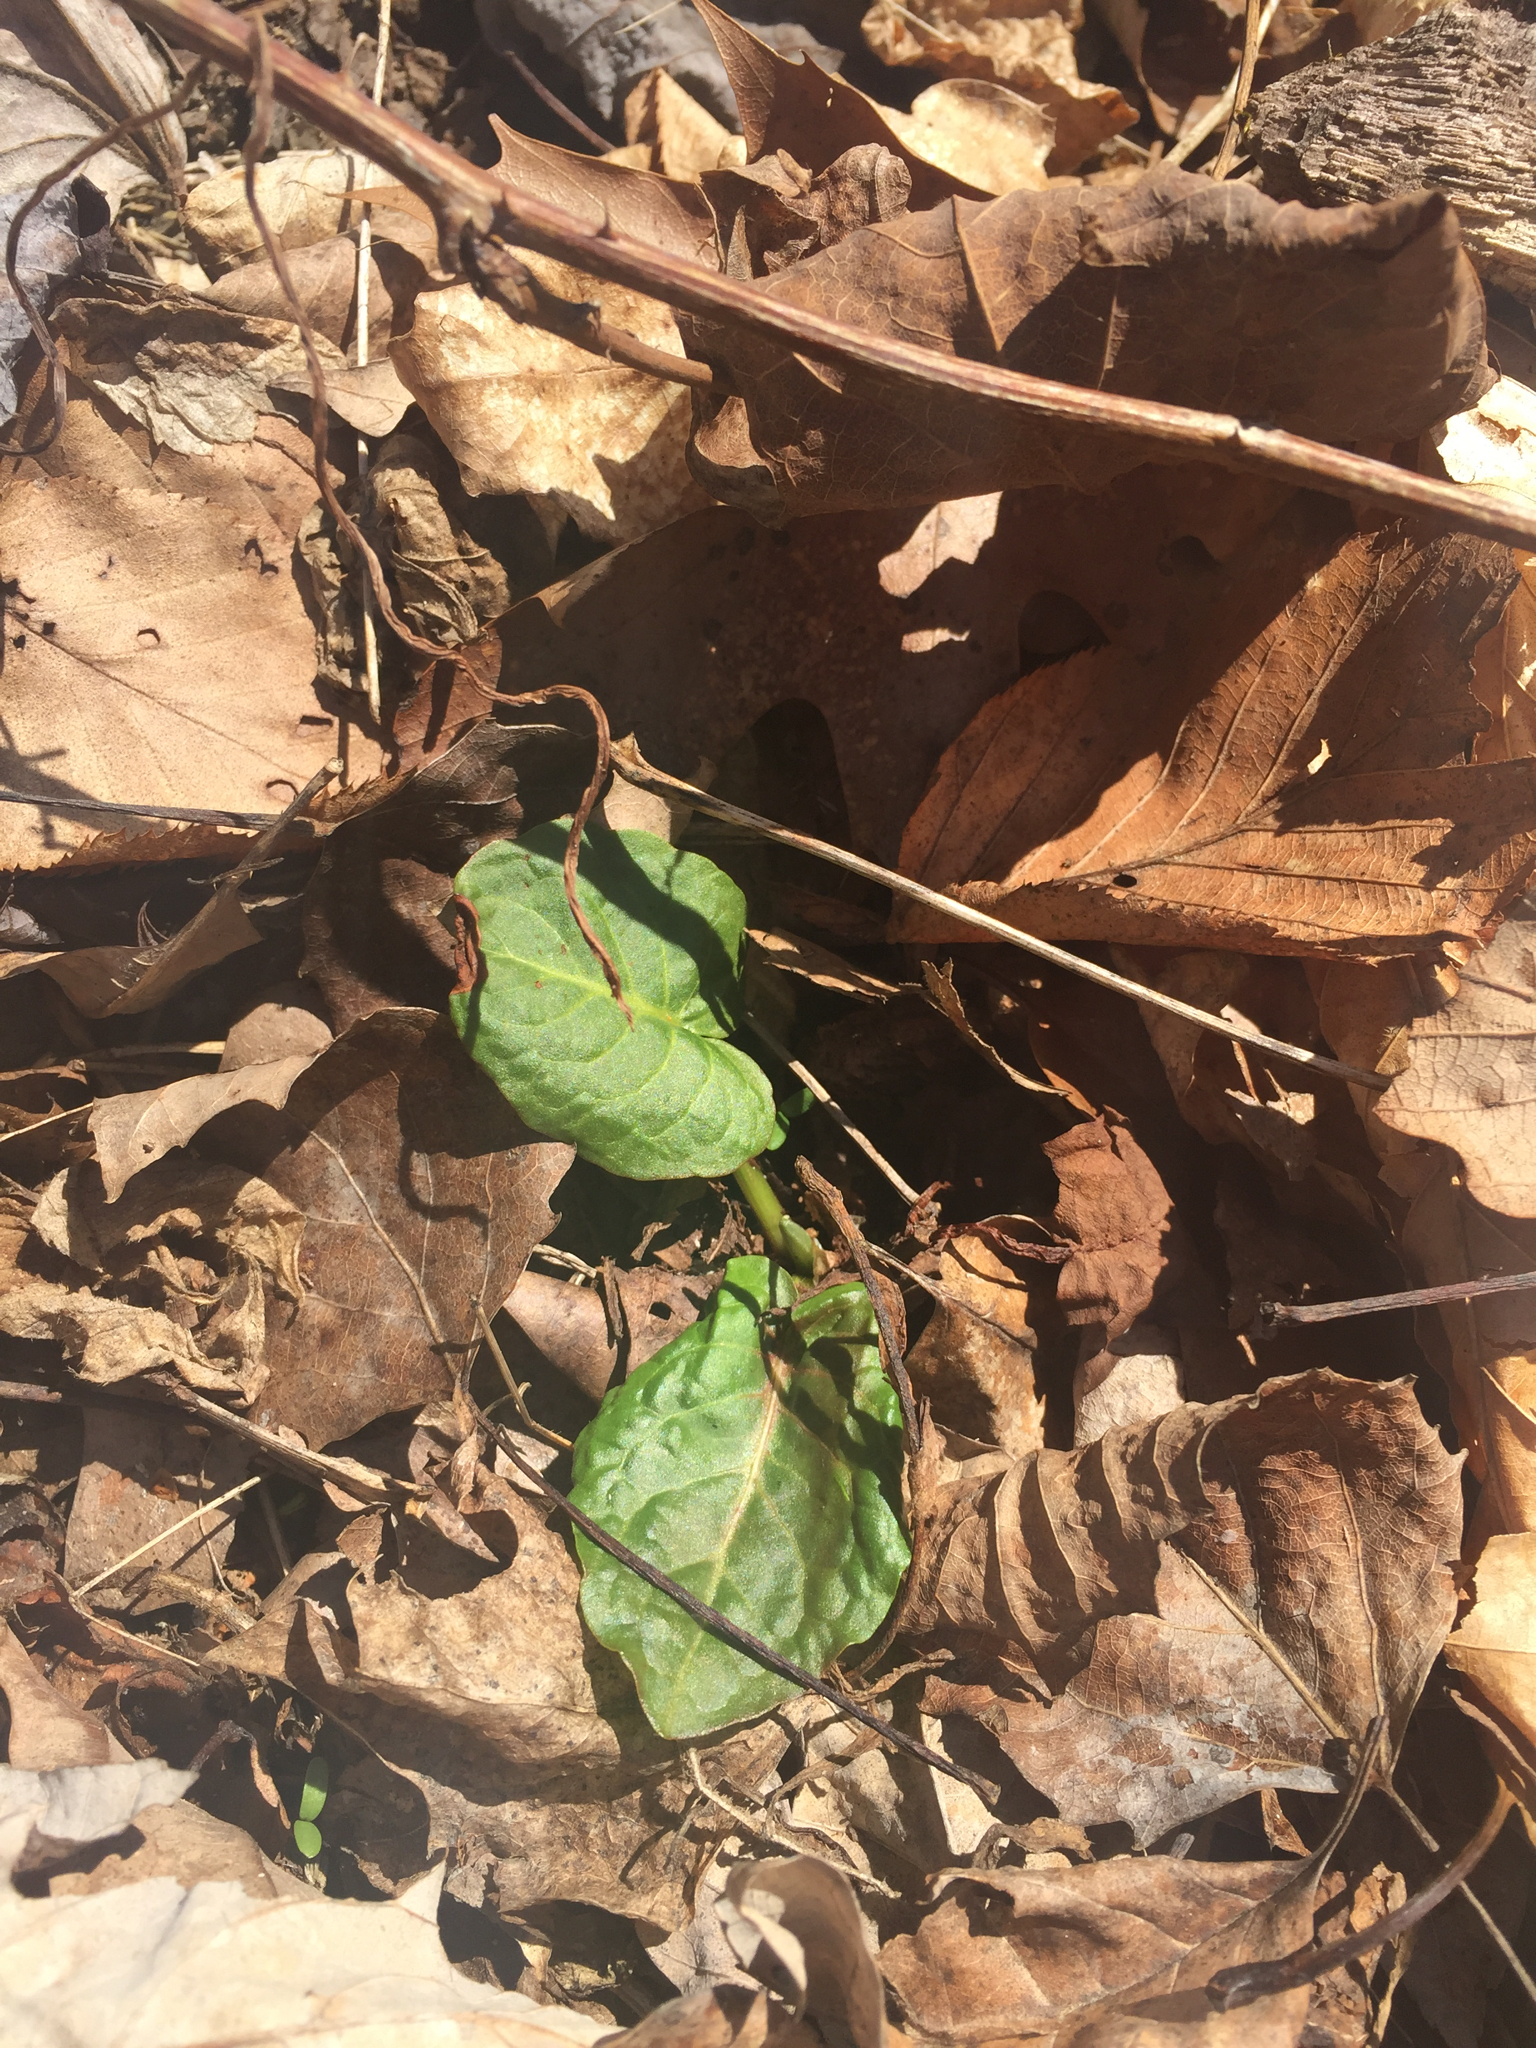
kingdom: Plantae
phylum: Tracheophyta
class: Magnoliopsida
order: Caryophyllales
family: Polygonaceae
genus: Rumex
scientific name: Rumex obtusifolius
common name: Bitter dock
